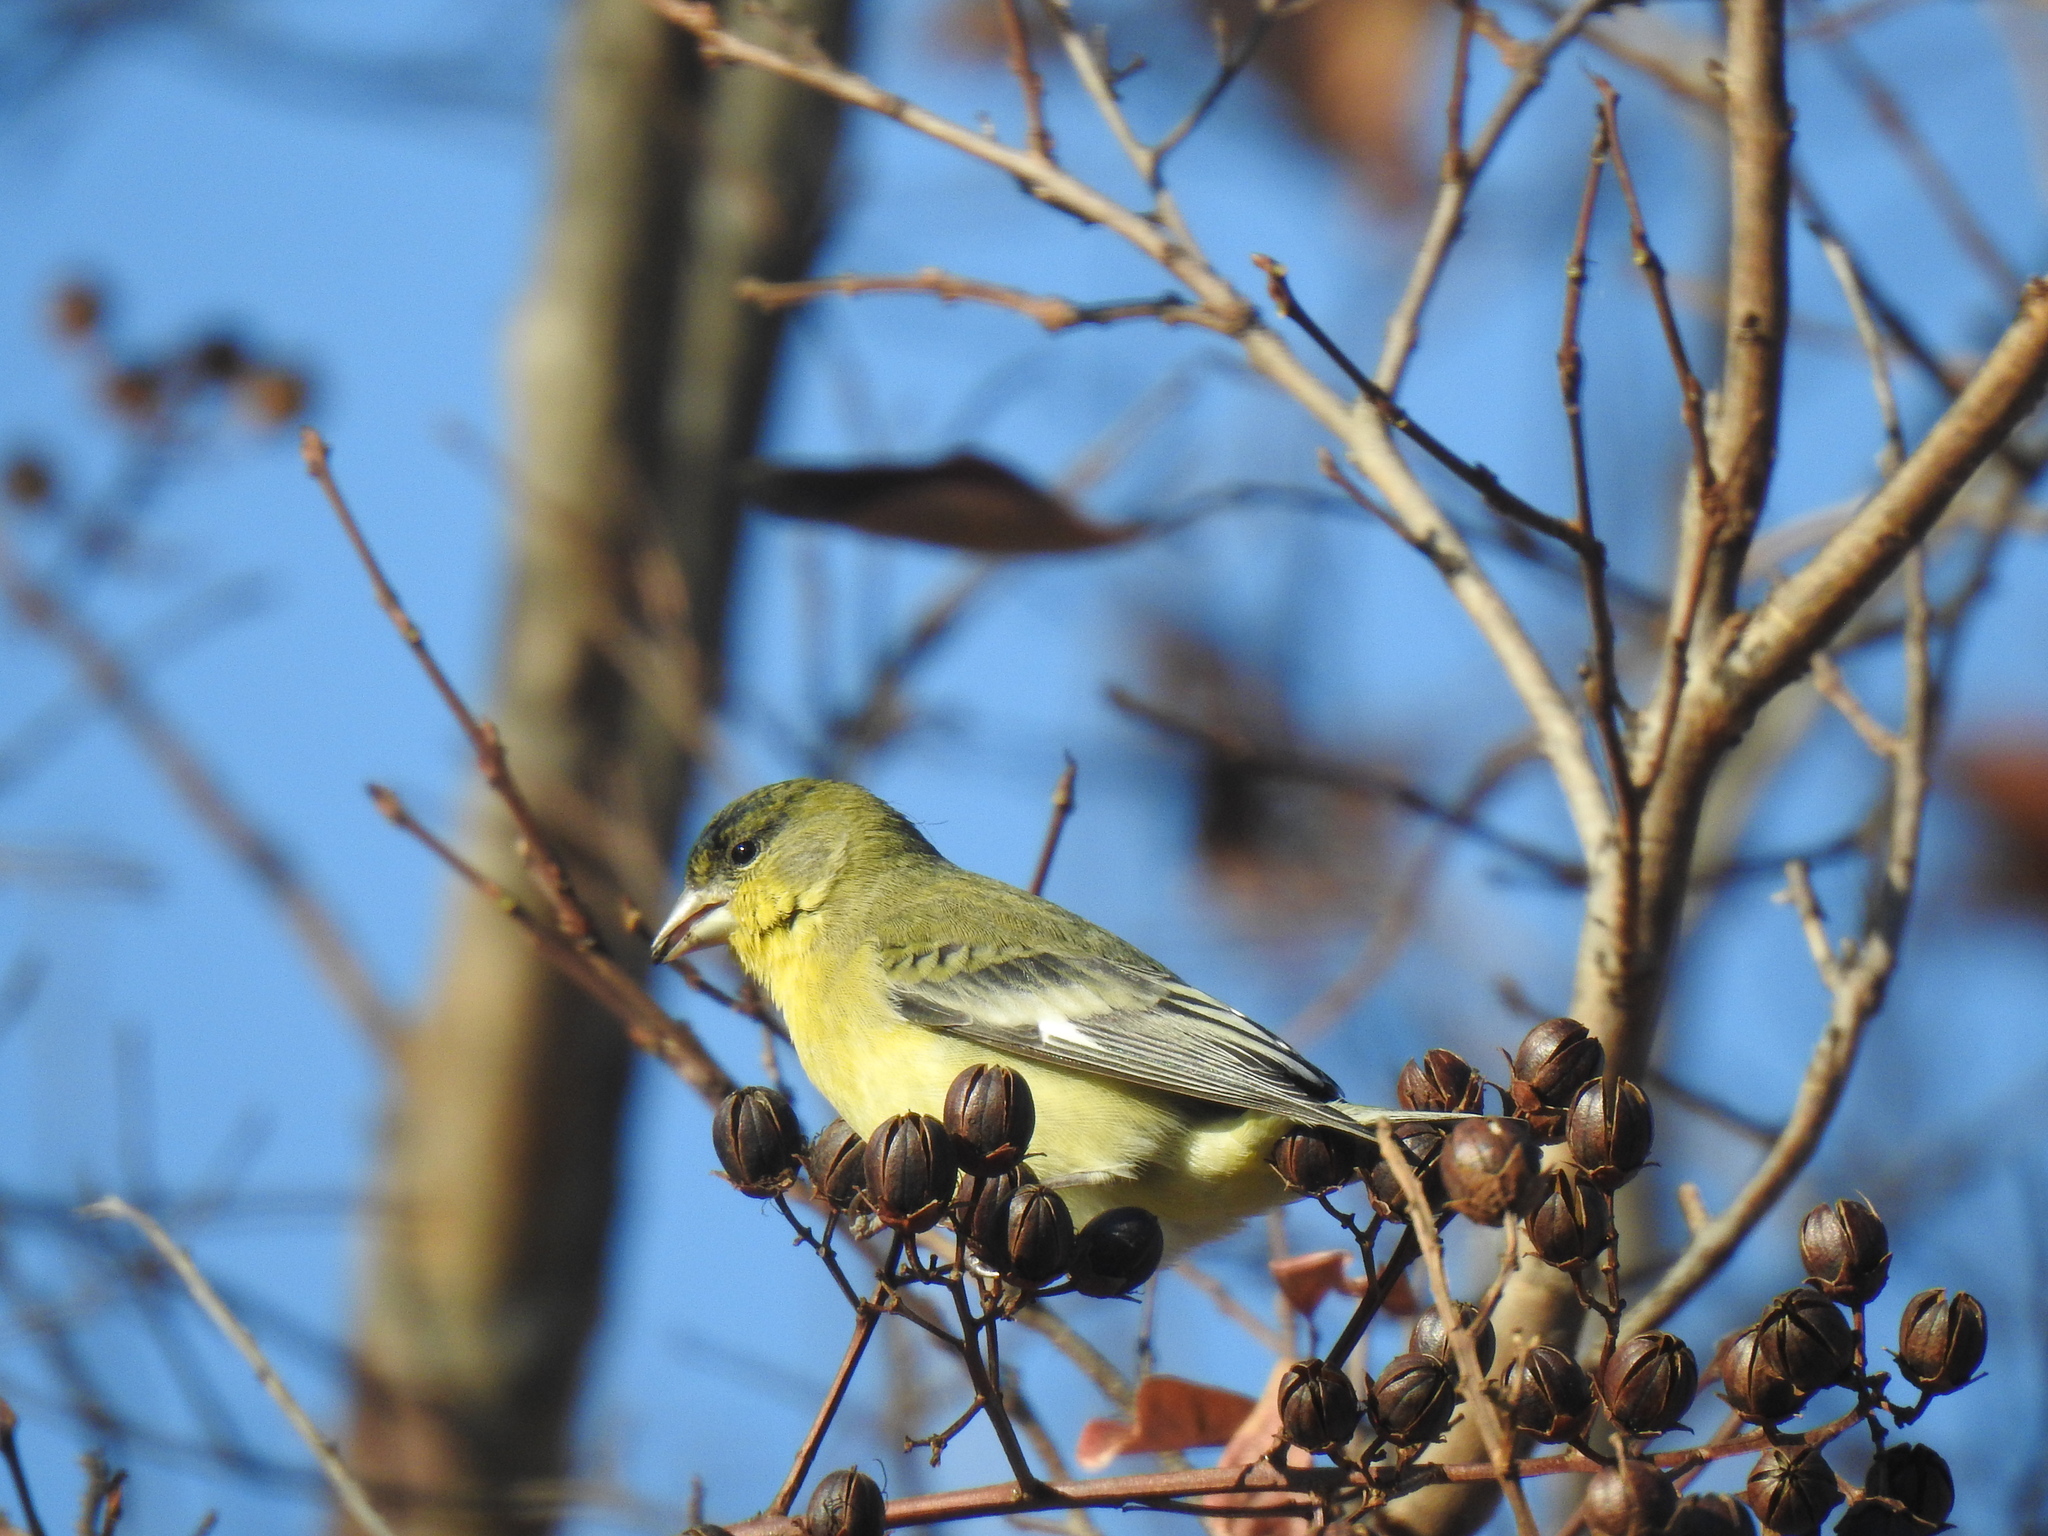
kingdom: Animalia
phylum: Chordata
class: Aves
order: Passeriformes
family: Fringillidae
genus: Spinus
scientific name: Spinus psaltria
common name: Lesser goldfinch
